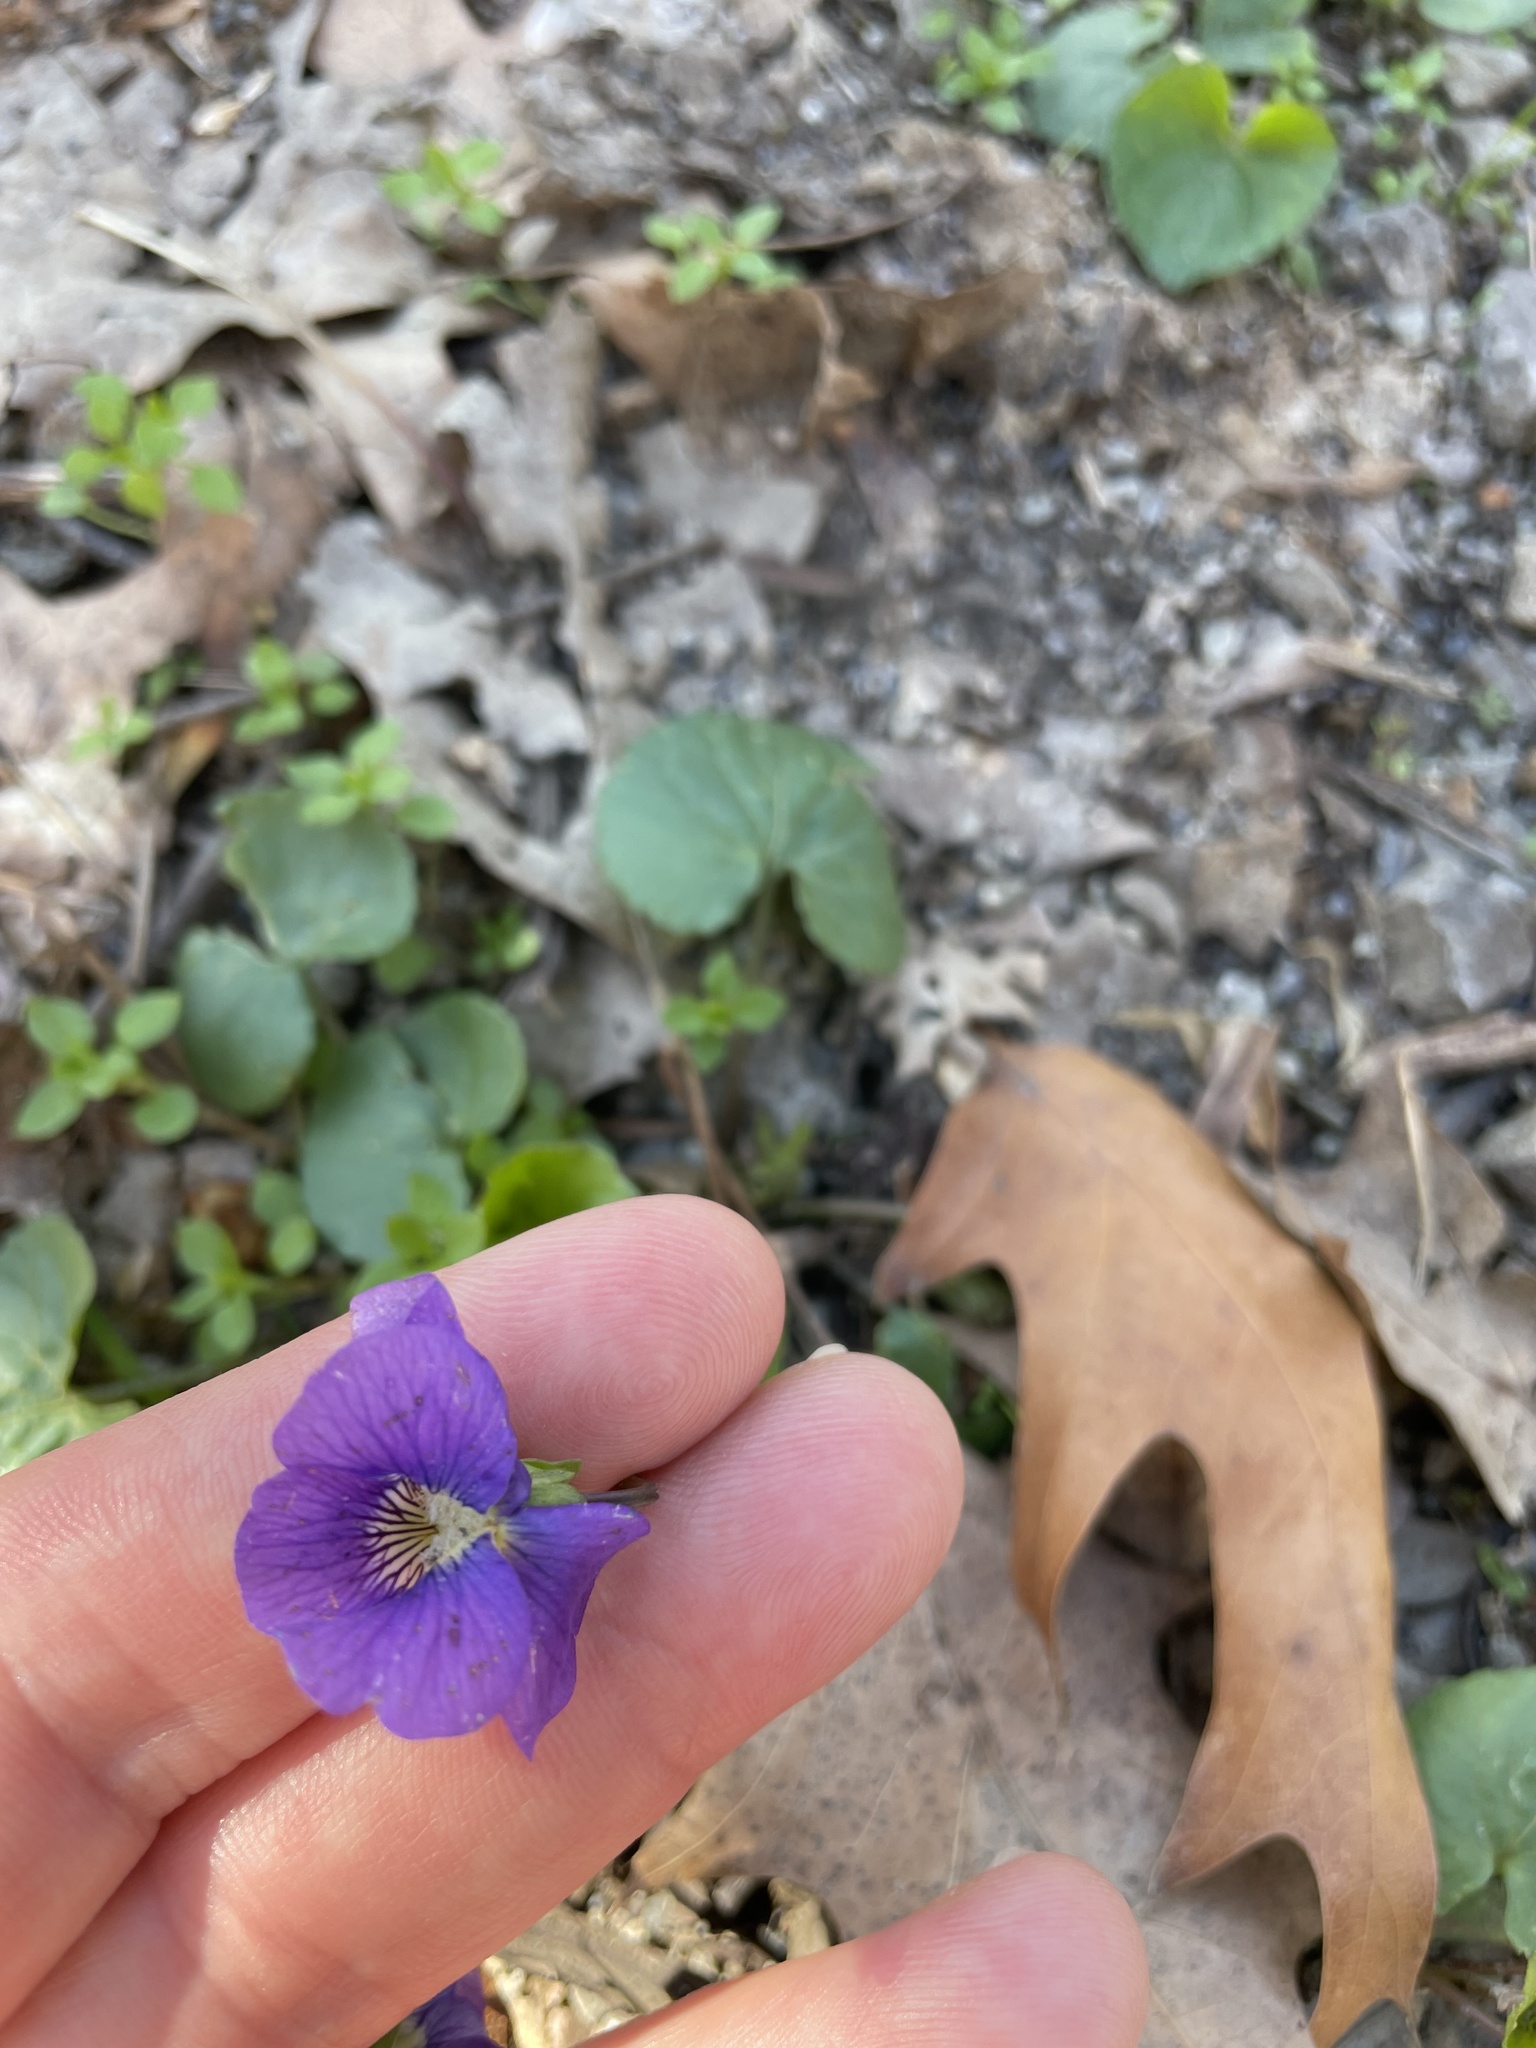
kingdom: Plantae
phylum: Tracheophyta
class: Magnoliopsida
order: Malpighiales
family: Violaceae
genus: Viola
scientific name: Viola sororia
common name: Dooryard violet
